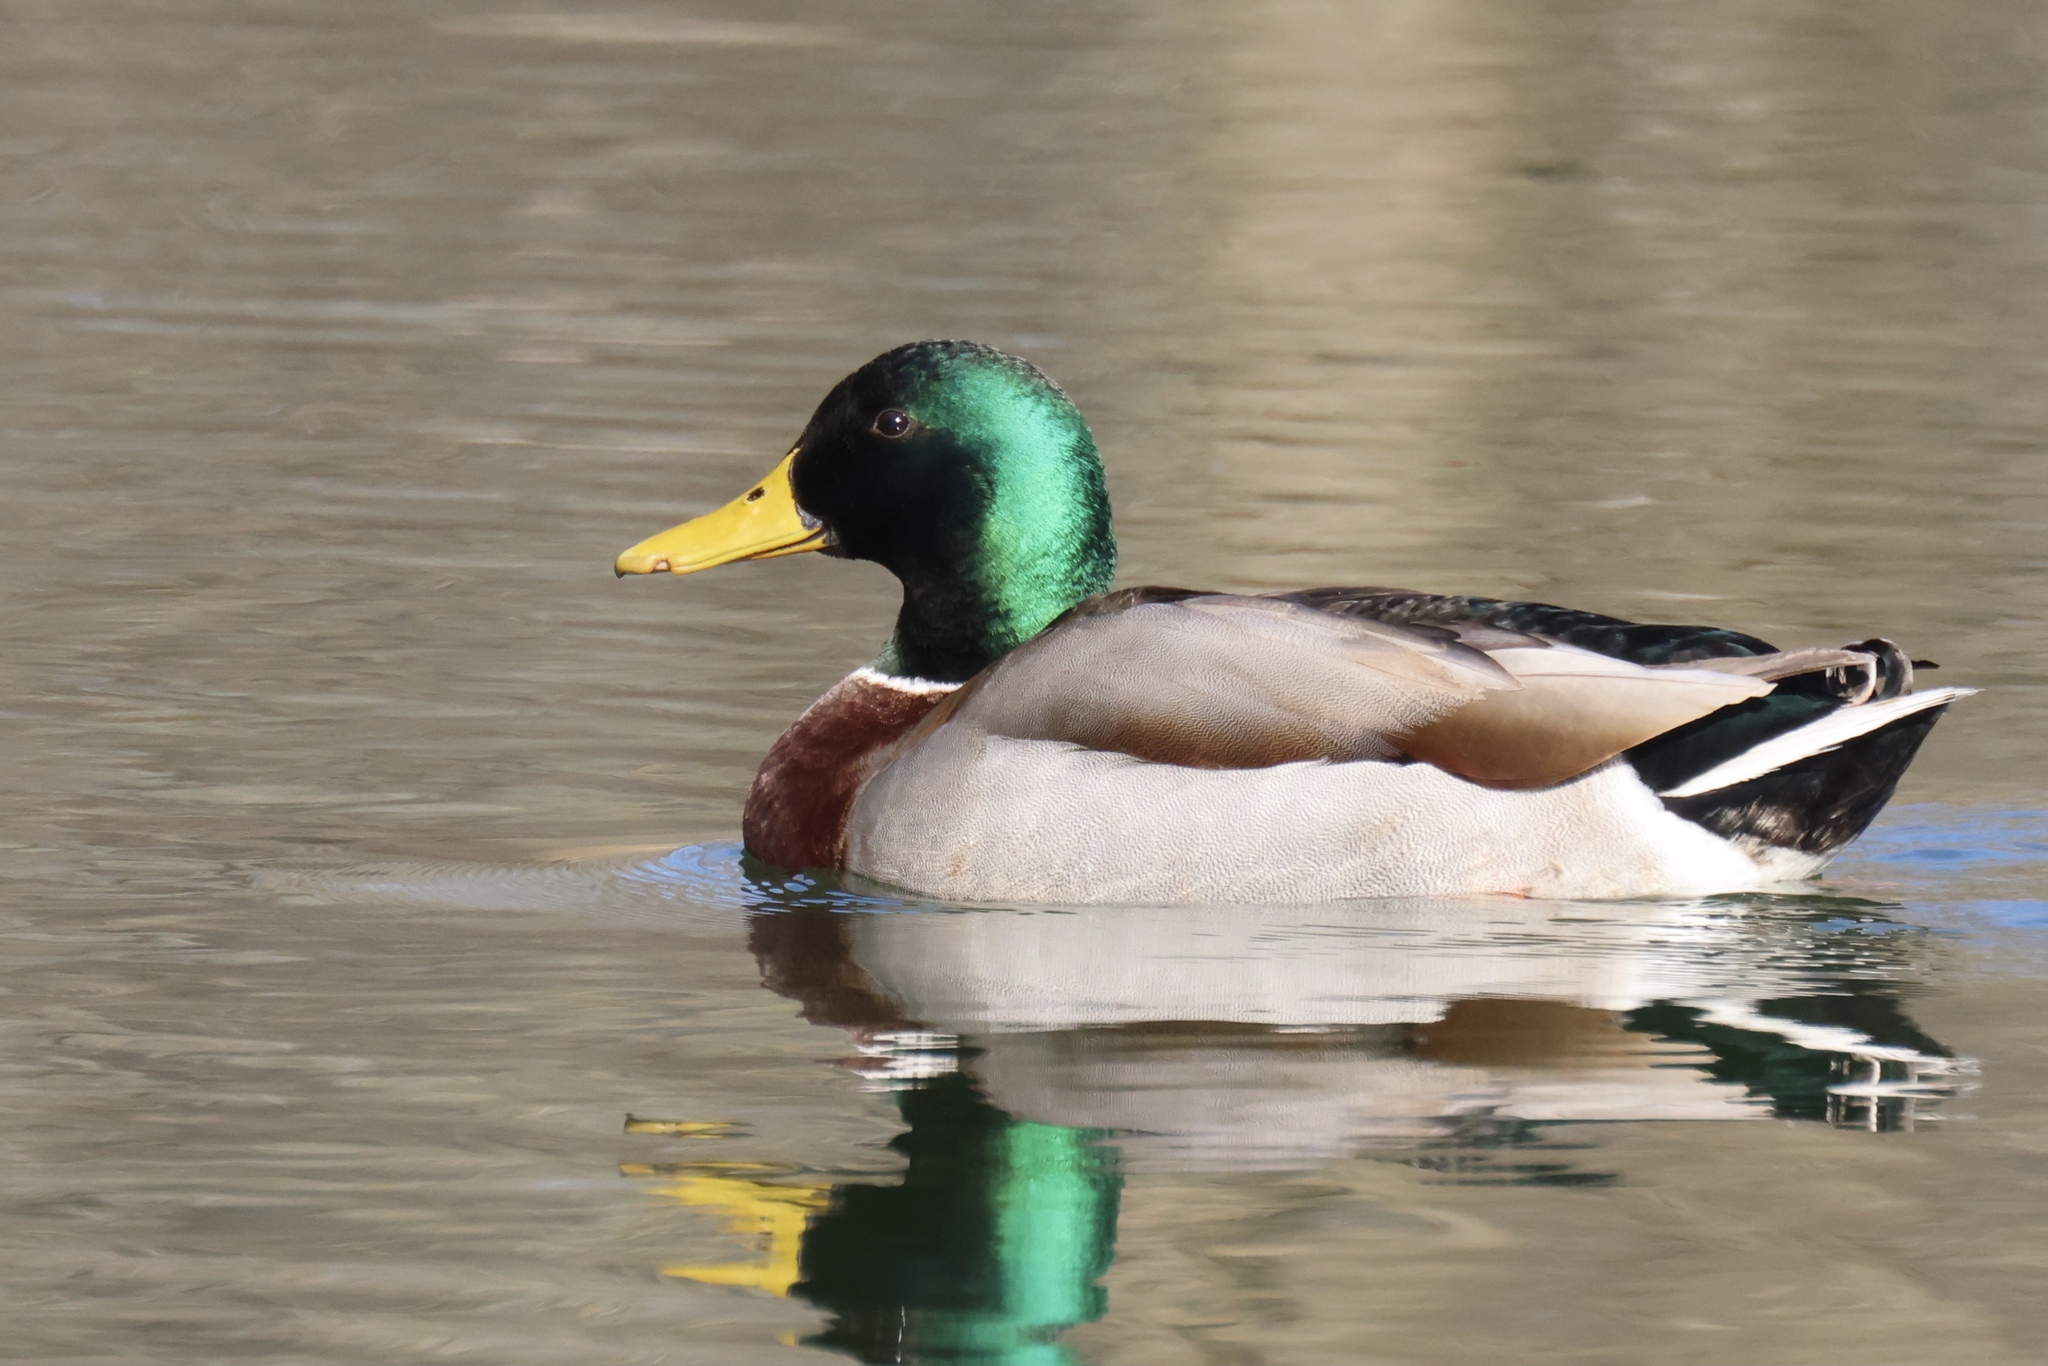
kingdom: Animalia
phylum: Chordata
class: Aves
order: Anseriformes
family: Anatidae
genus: Anas
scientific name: Anas platyrhynchos
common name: Mallard
